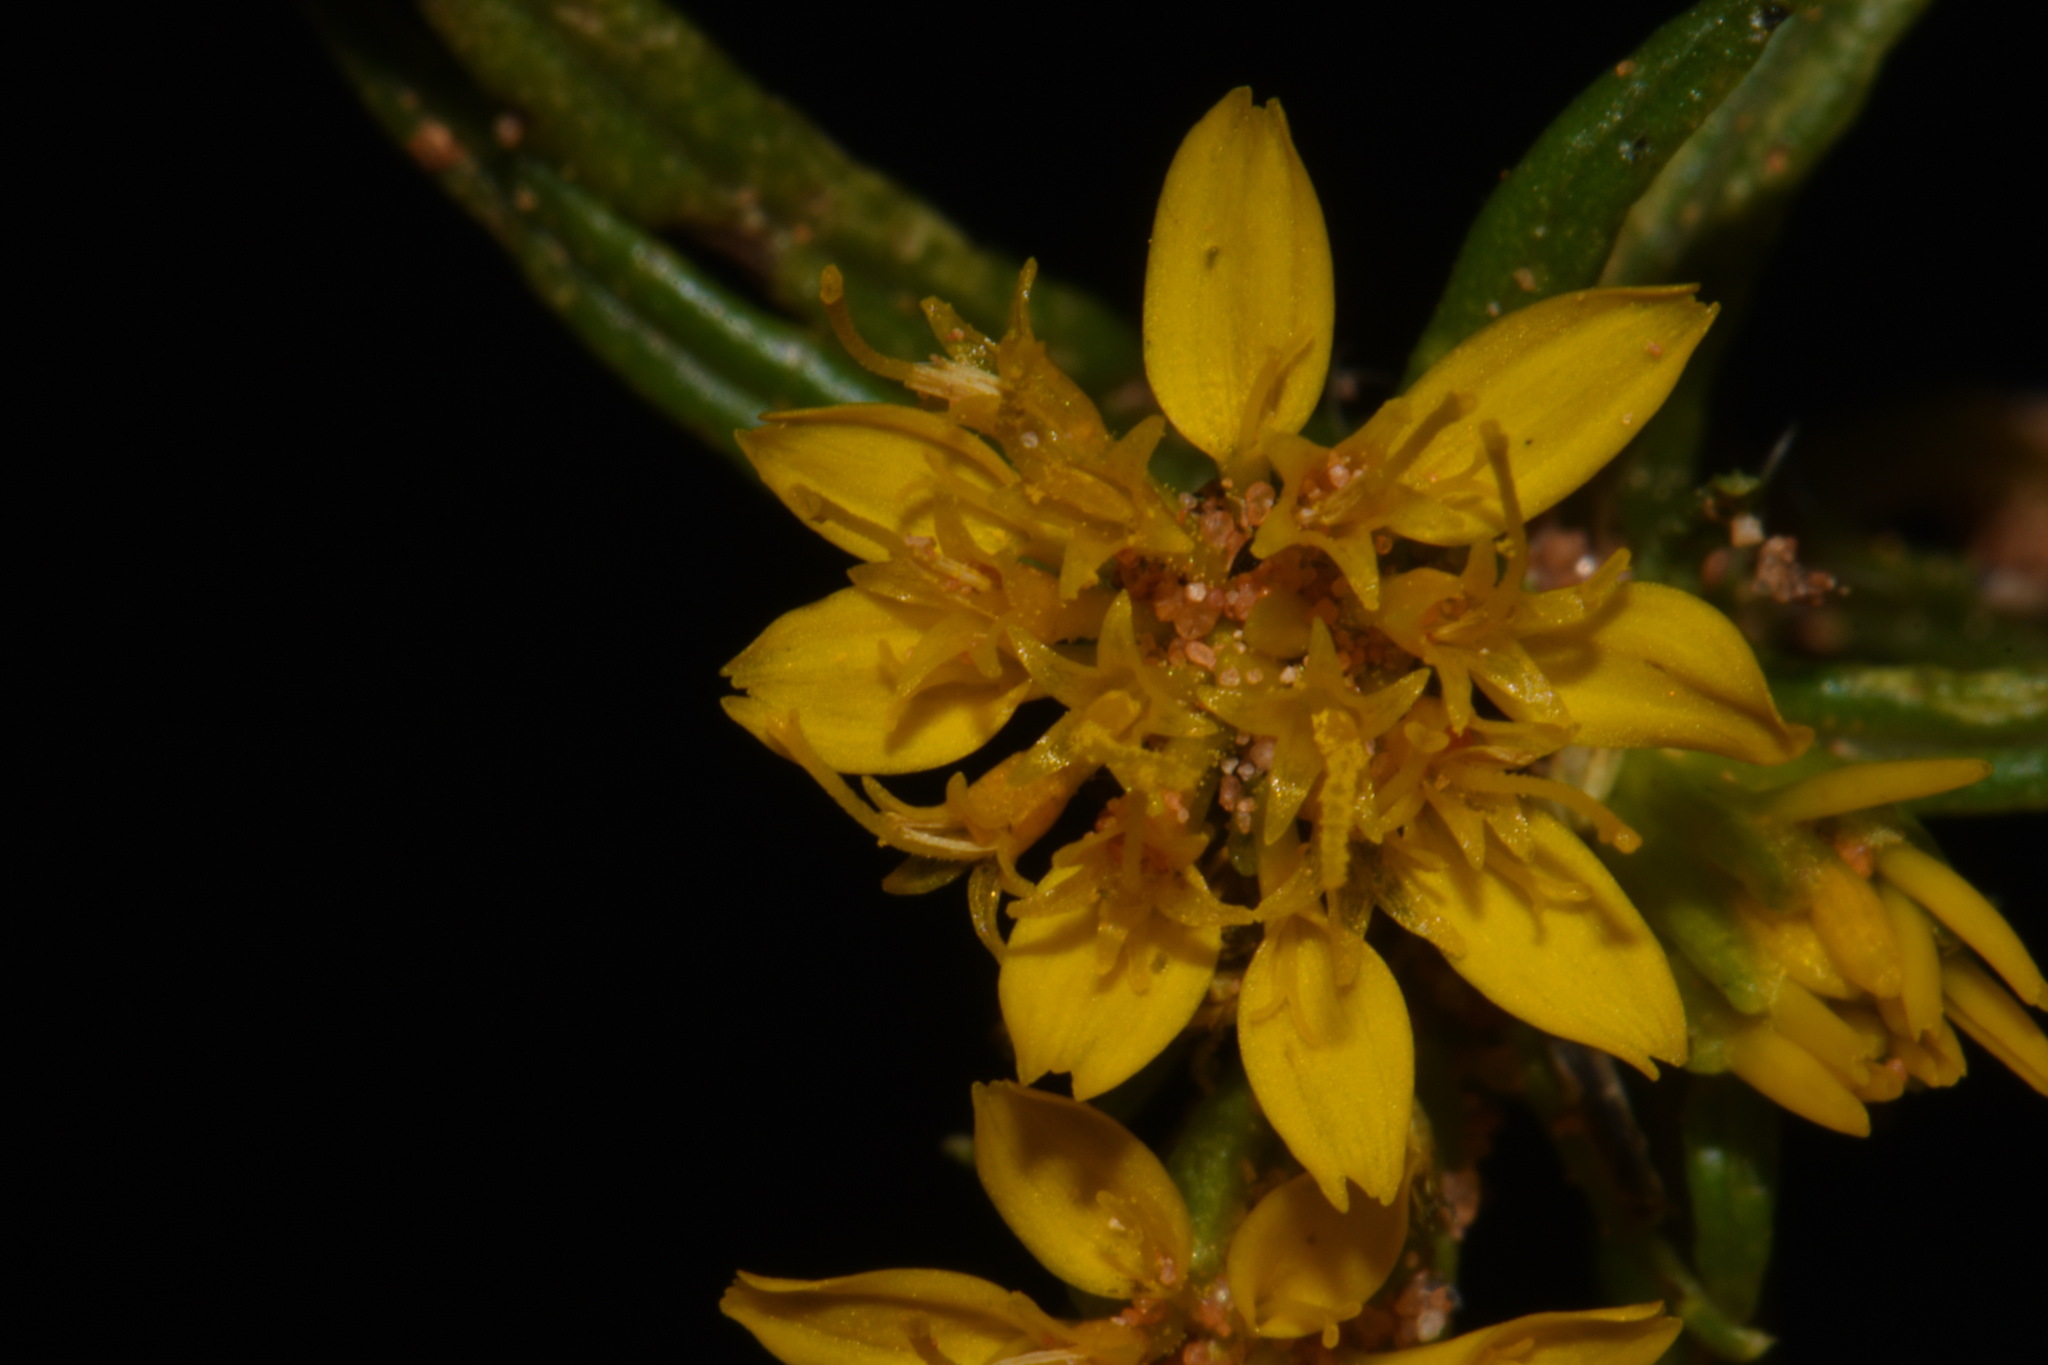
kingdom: Plantae
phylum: Tracheophyta
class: Magnoliopsida
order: Asterales
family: Asteraceae
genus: Pectis
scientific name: Pectis angustifolia
